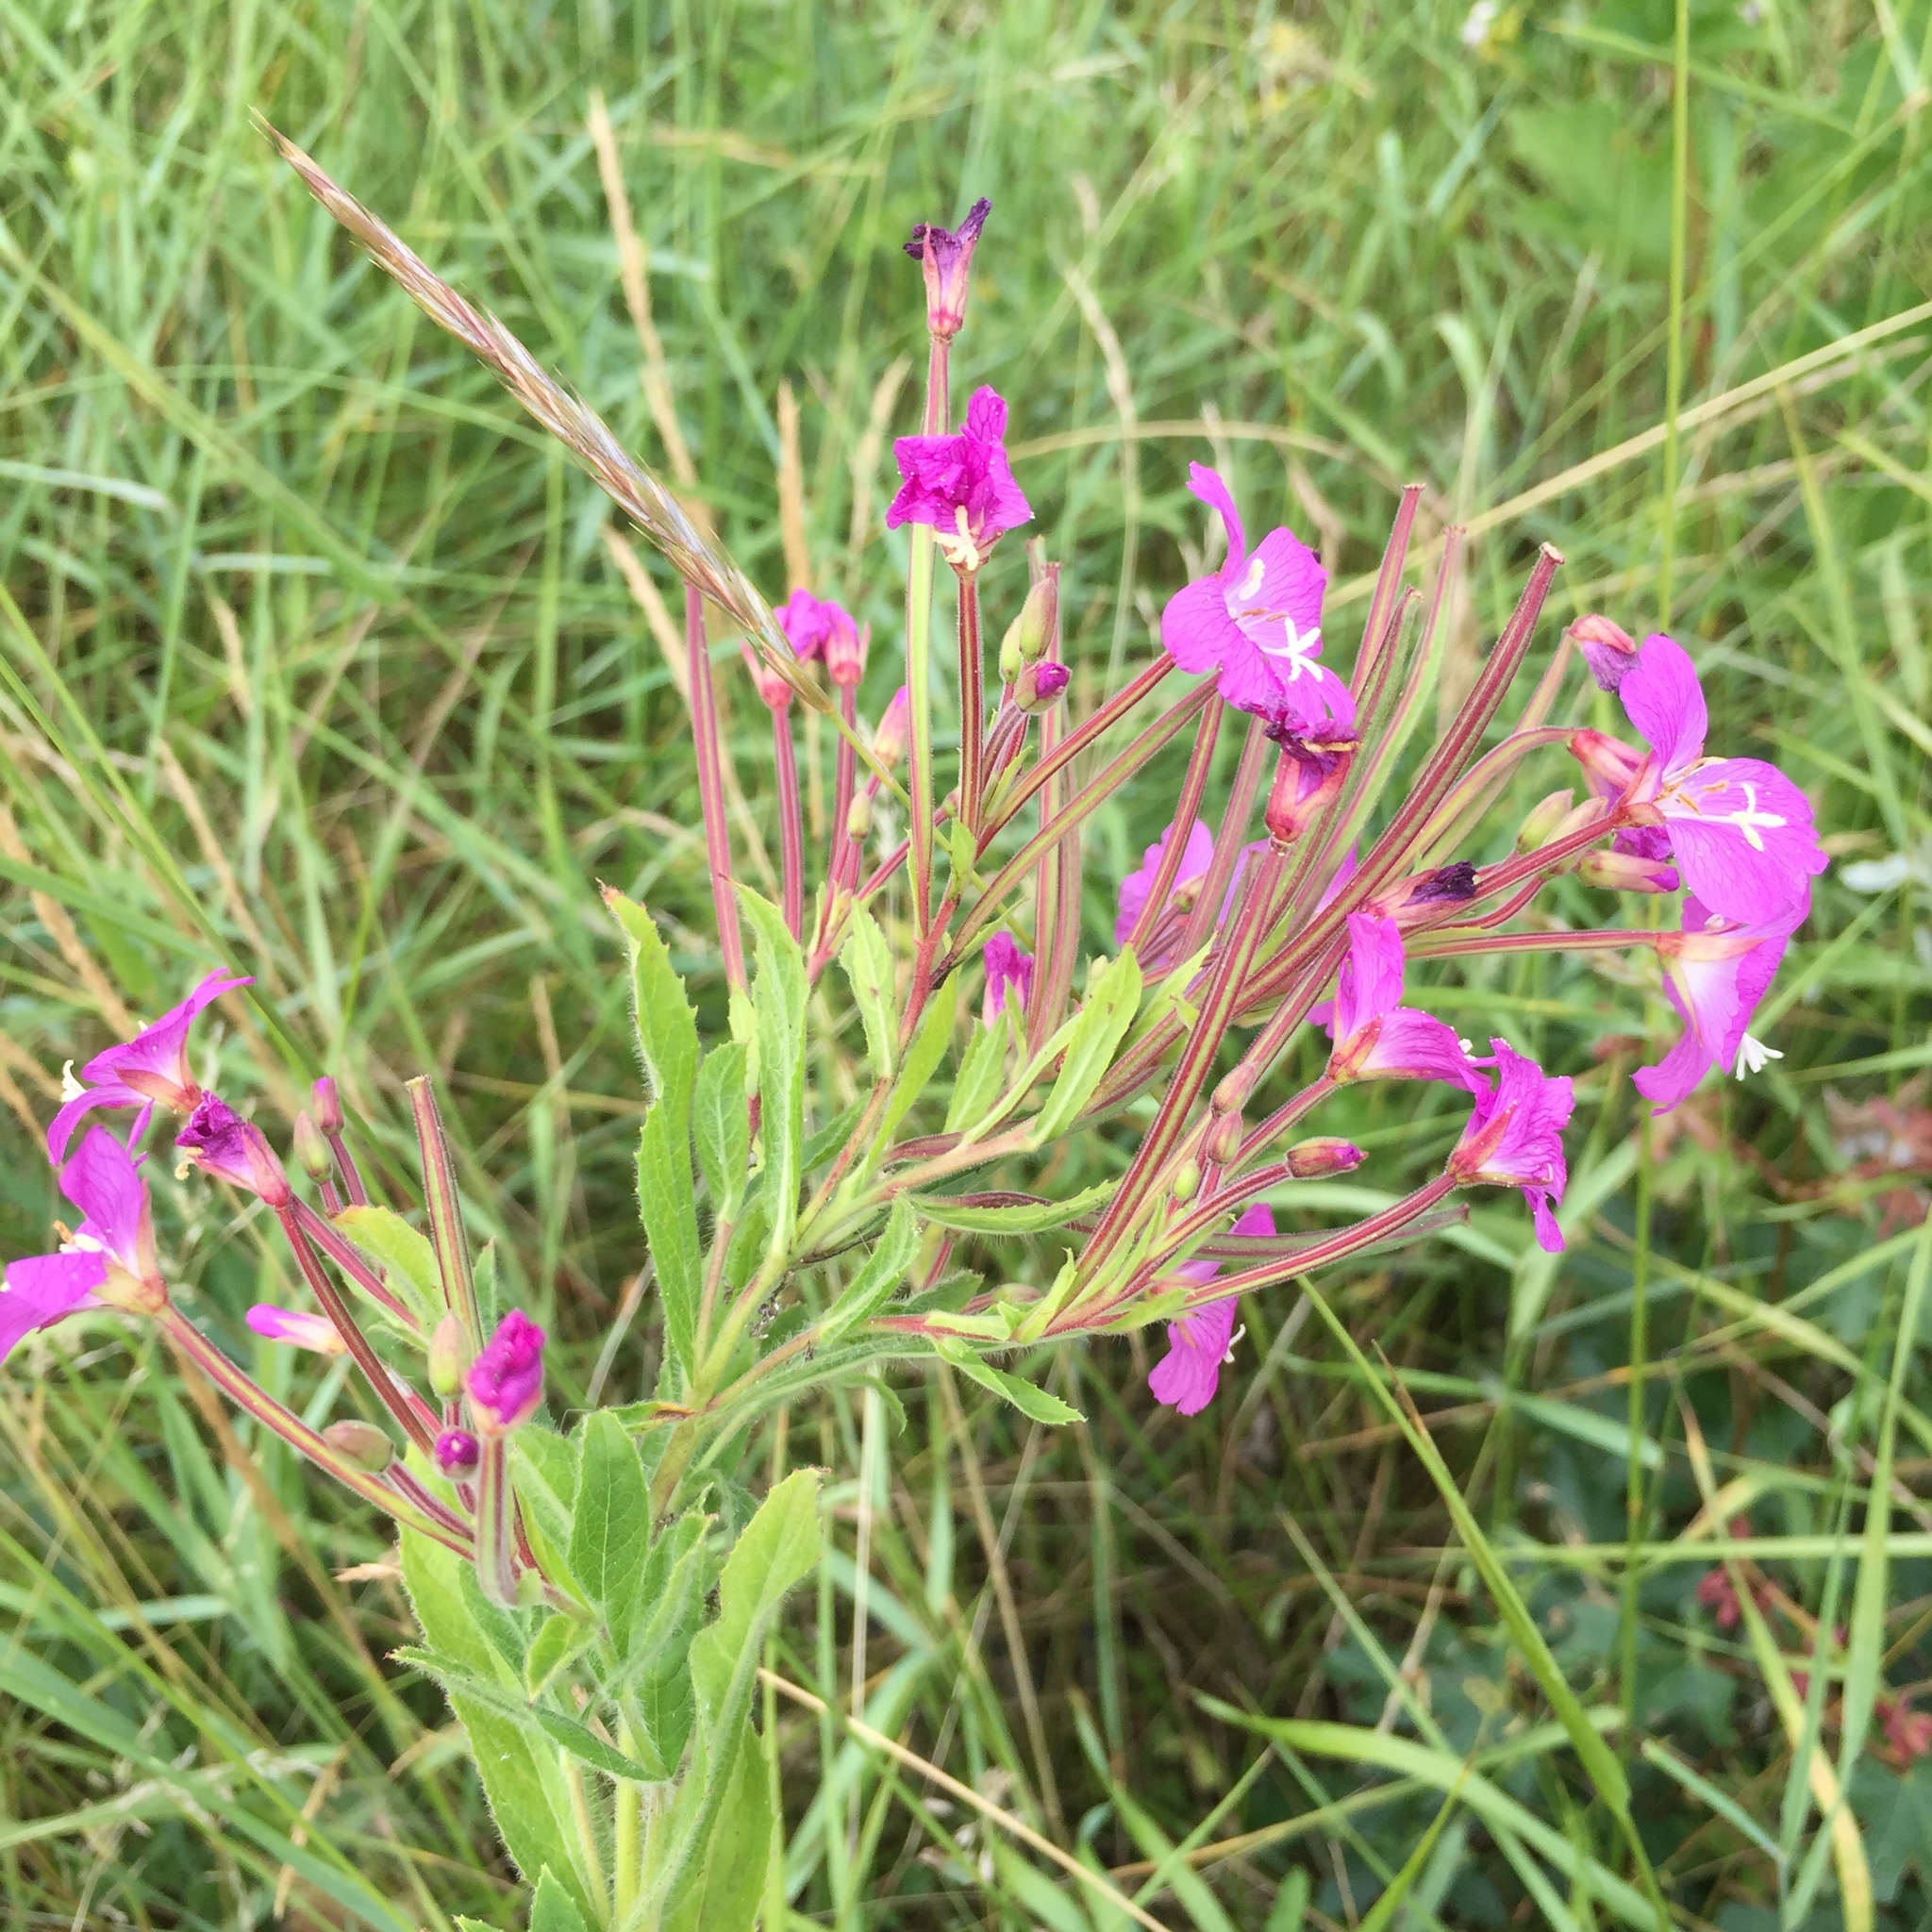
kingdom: Plantae
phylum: Tracheophyta
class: Magnoliopsida
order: Myrtales
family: Onagraceae
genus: Epilobium
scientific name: Epilobium hirsutum
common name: Great willowherb
